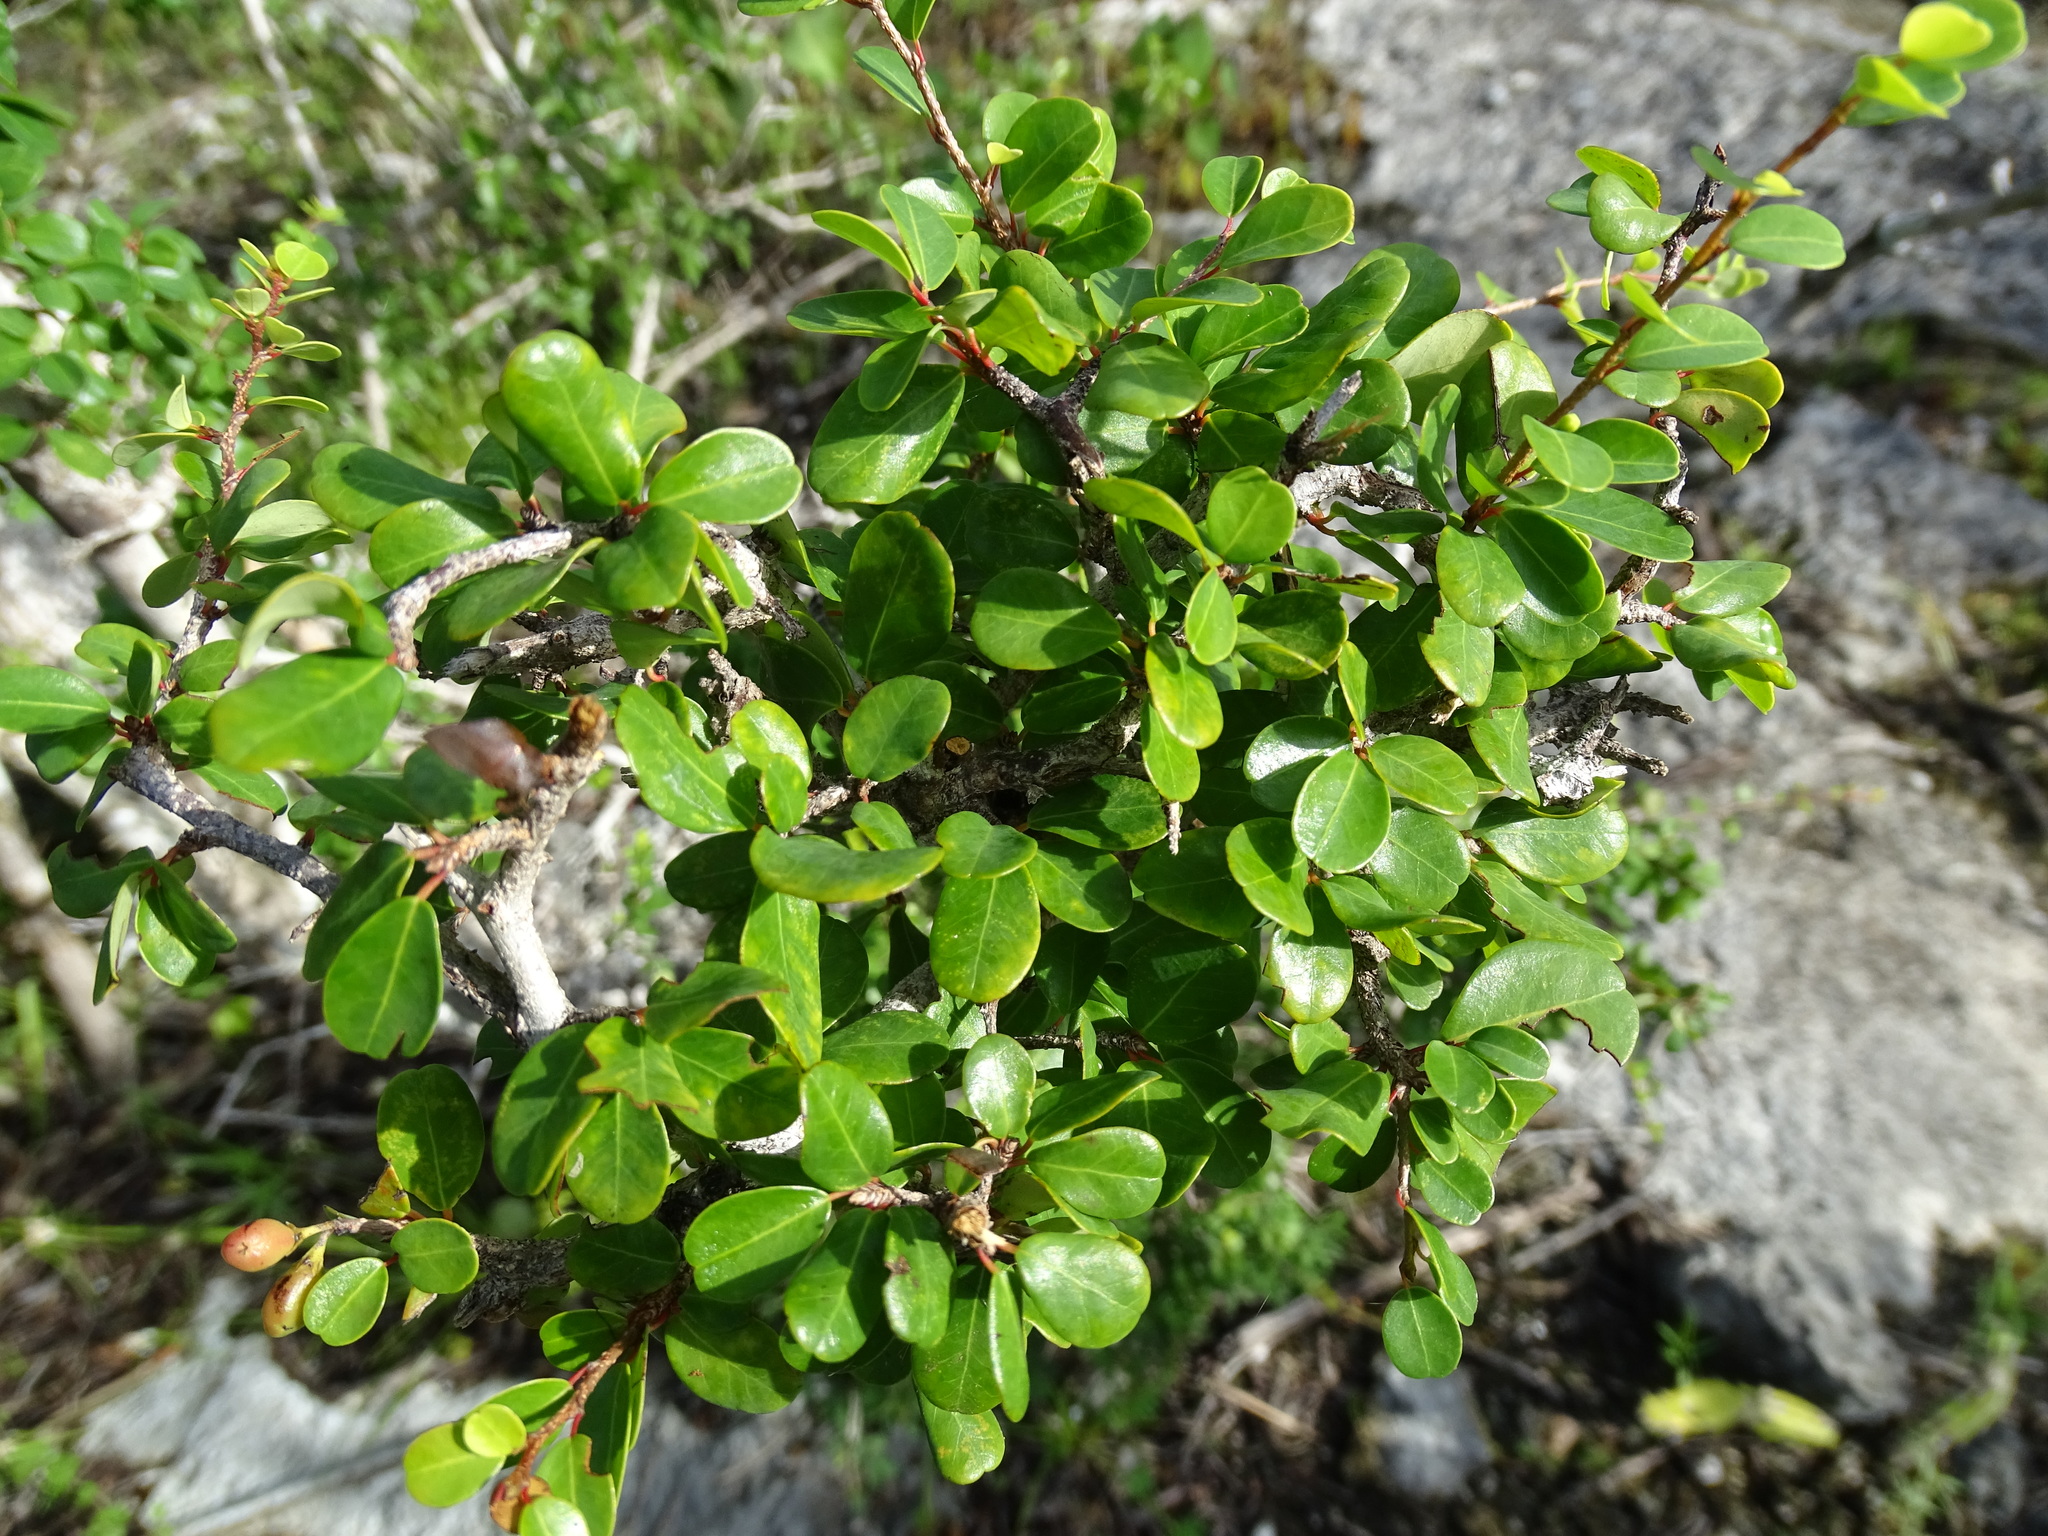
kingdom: Plantae
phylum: Tracheophyta
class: Magnoliopsida
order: Malpighiales
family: Erythroxylaceae
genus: Erythroxylum
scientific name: Erythroxylum rotundifolium
